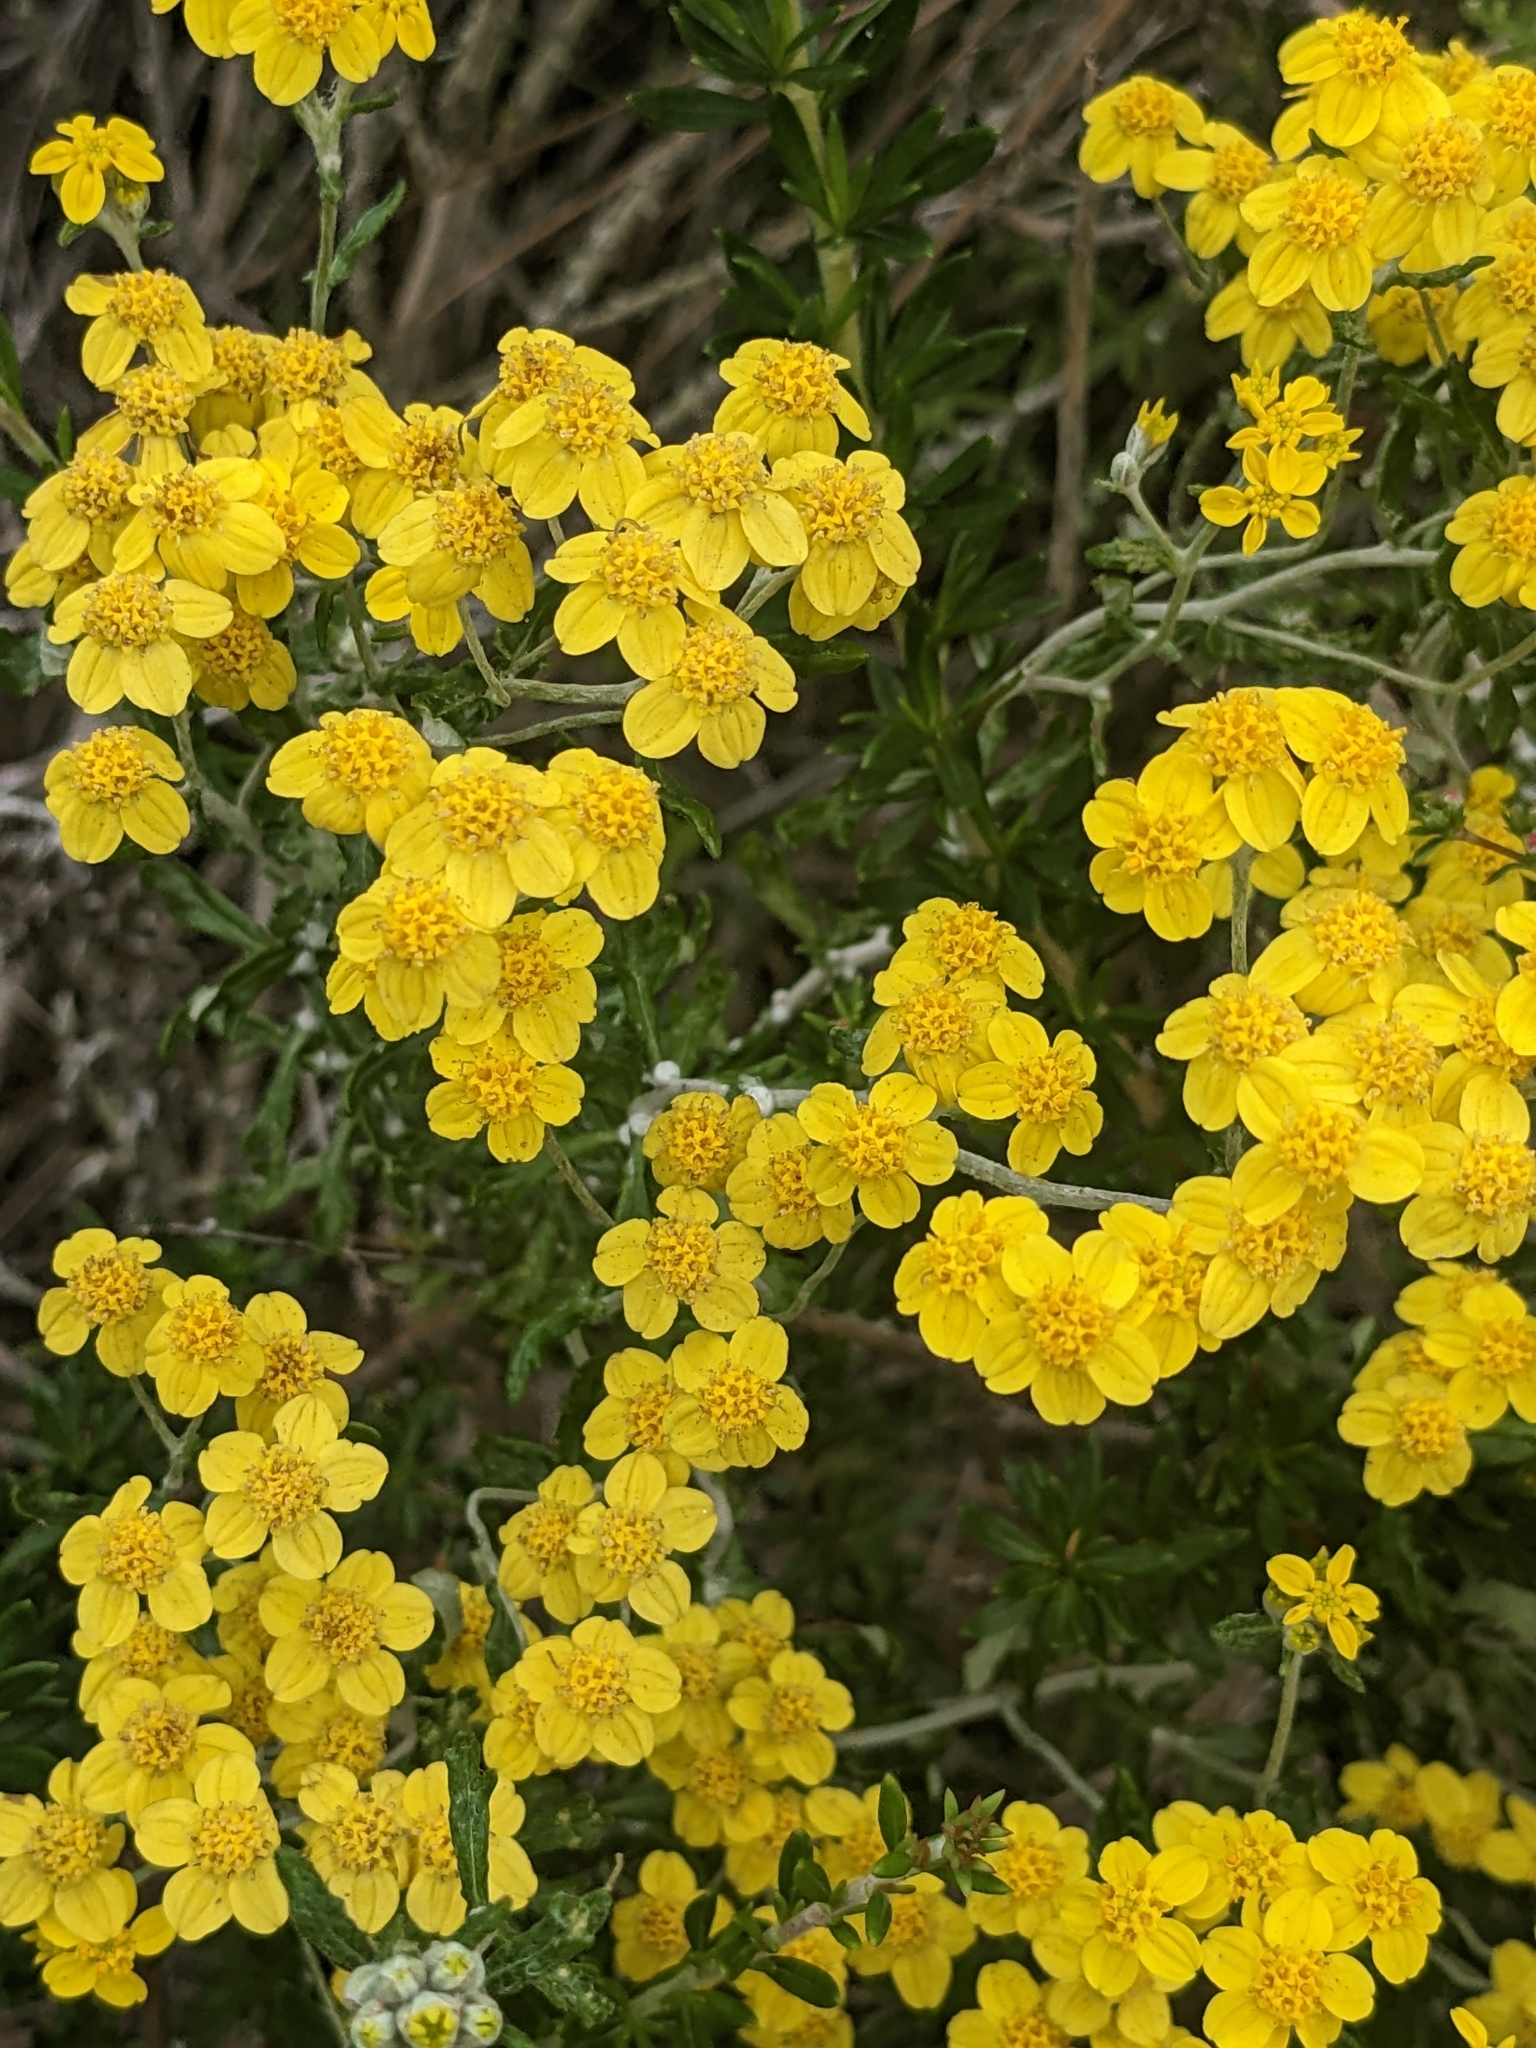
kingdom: Plantae
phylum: Tracheophyta
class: Magnoliopsida
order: Asterales
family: Asteraceae
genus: Eriophyllum
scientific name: Eriophyllum confertiflorum
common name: Golden-yarrow
